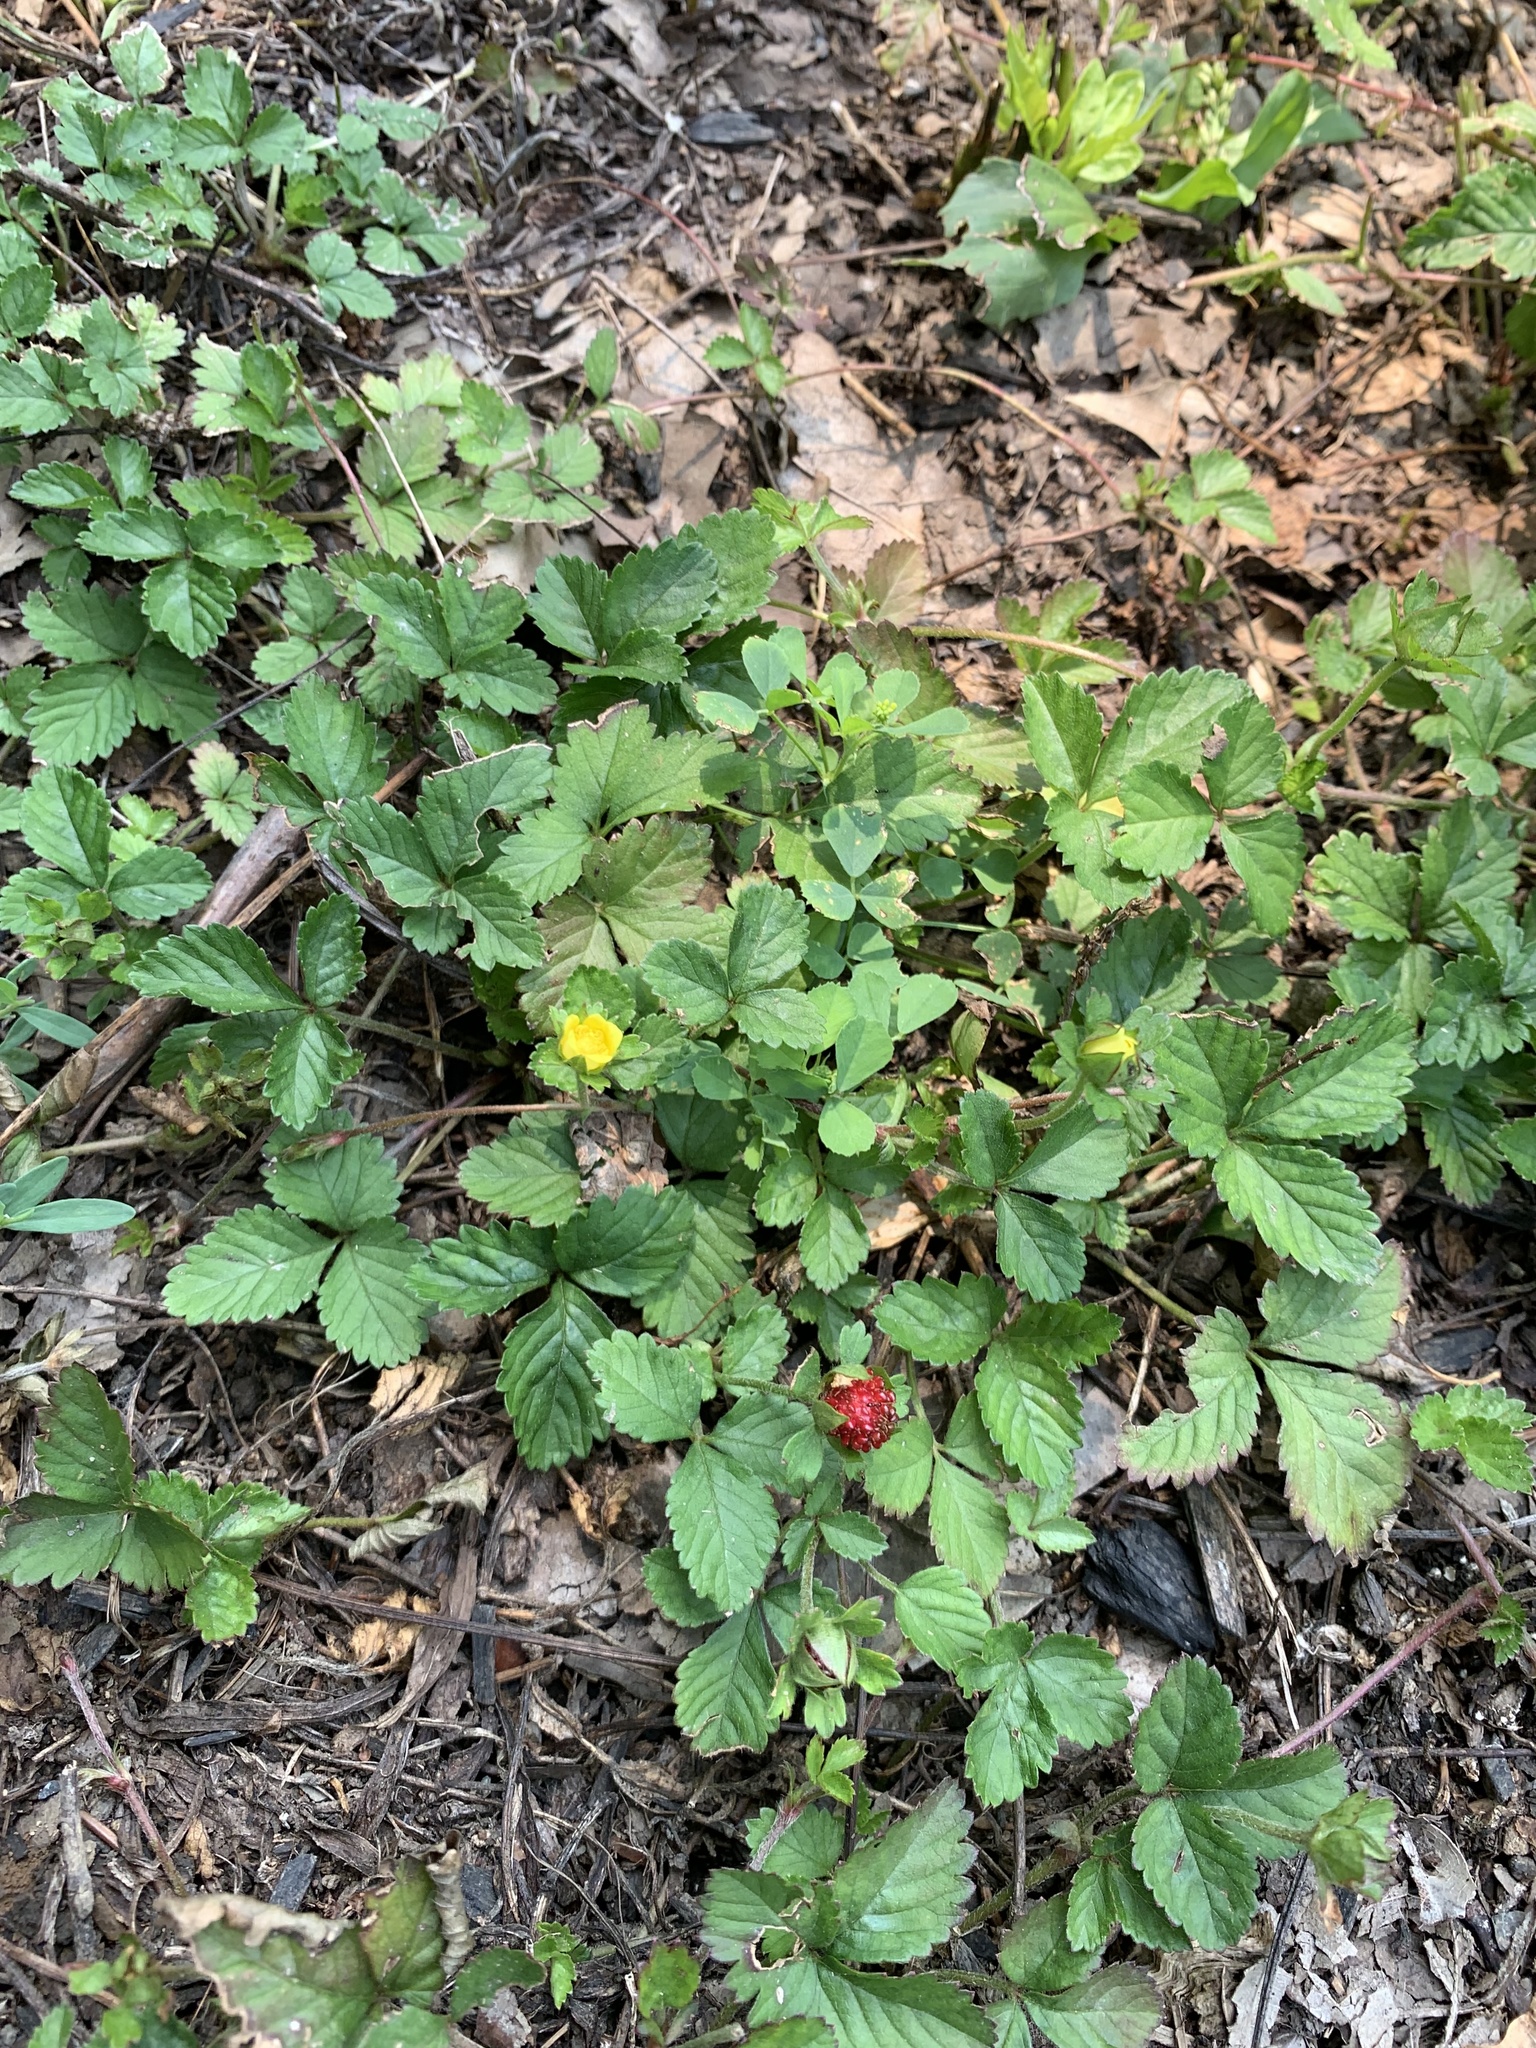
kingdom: Plantae
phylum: Tracheophyta
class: Magnoliopsida
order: Rosales
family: Rosaceae
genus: Potentilla
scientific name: Potentilla indica
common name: Yellow-flowered strawberry
